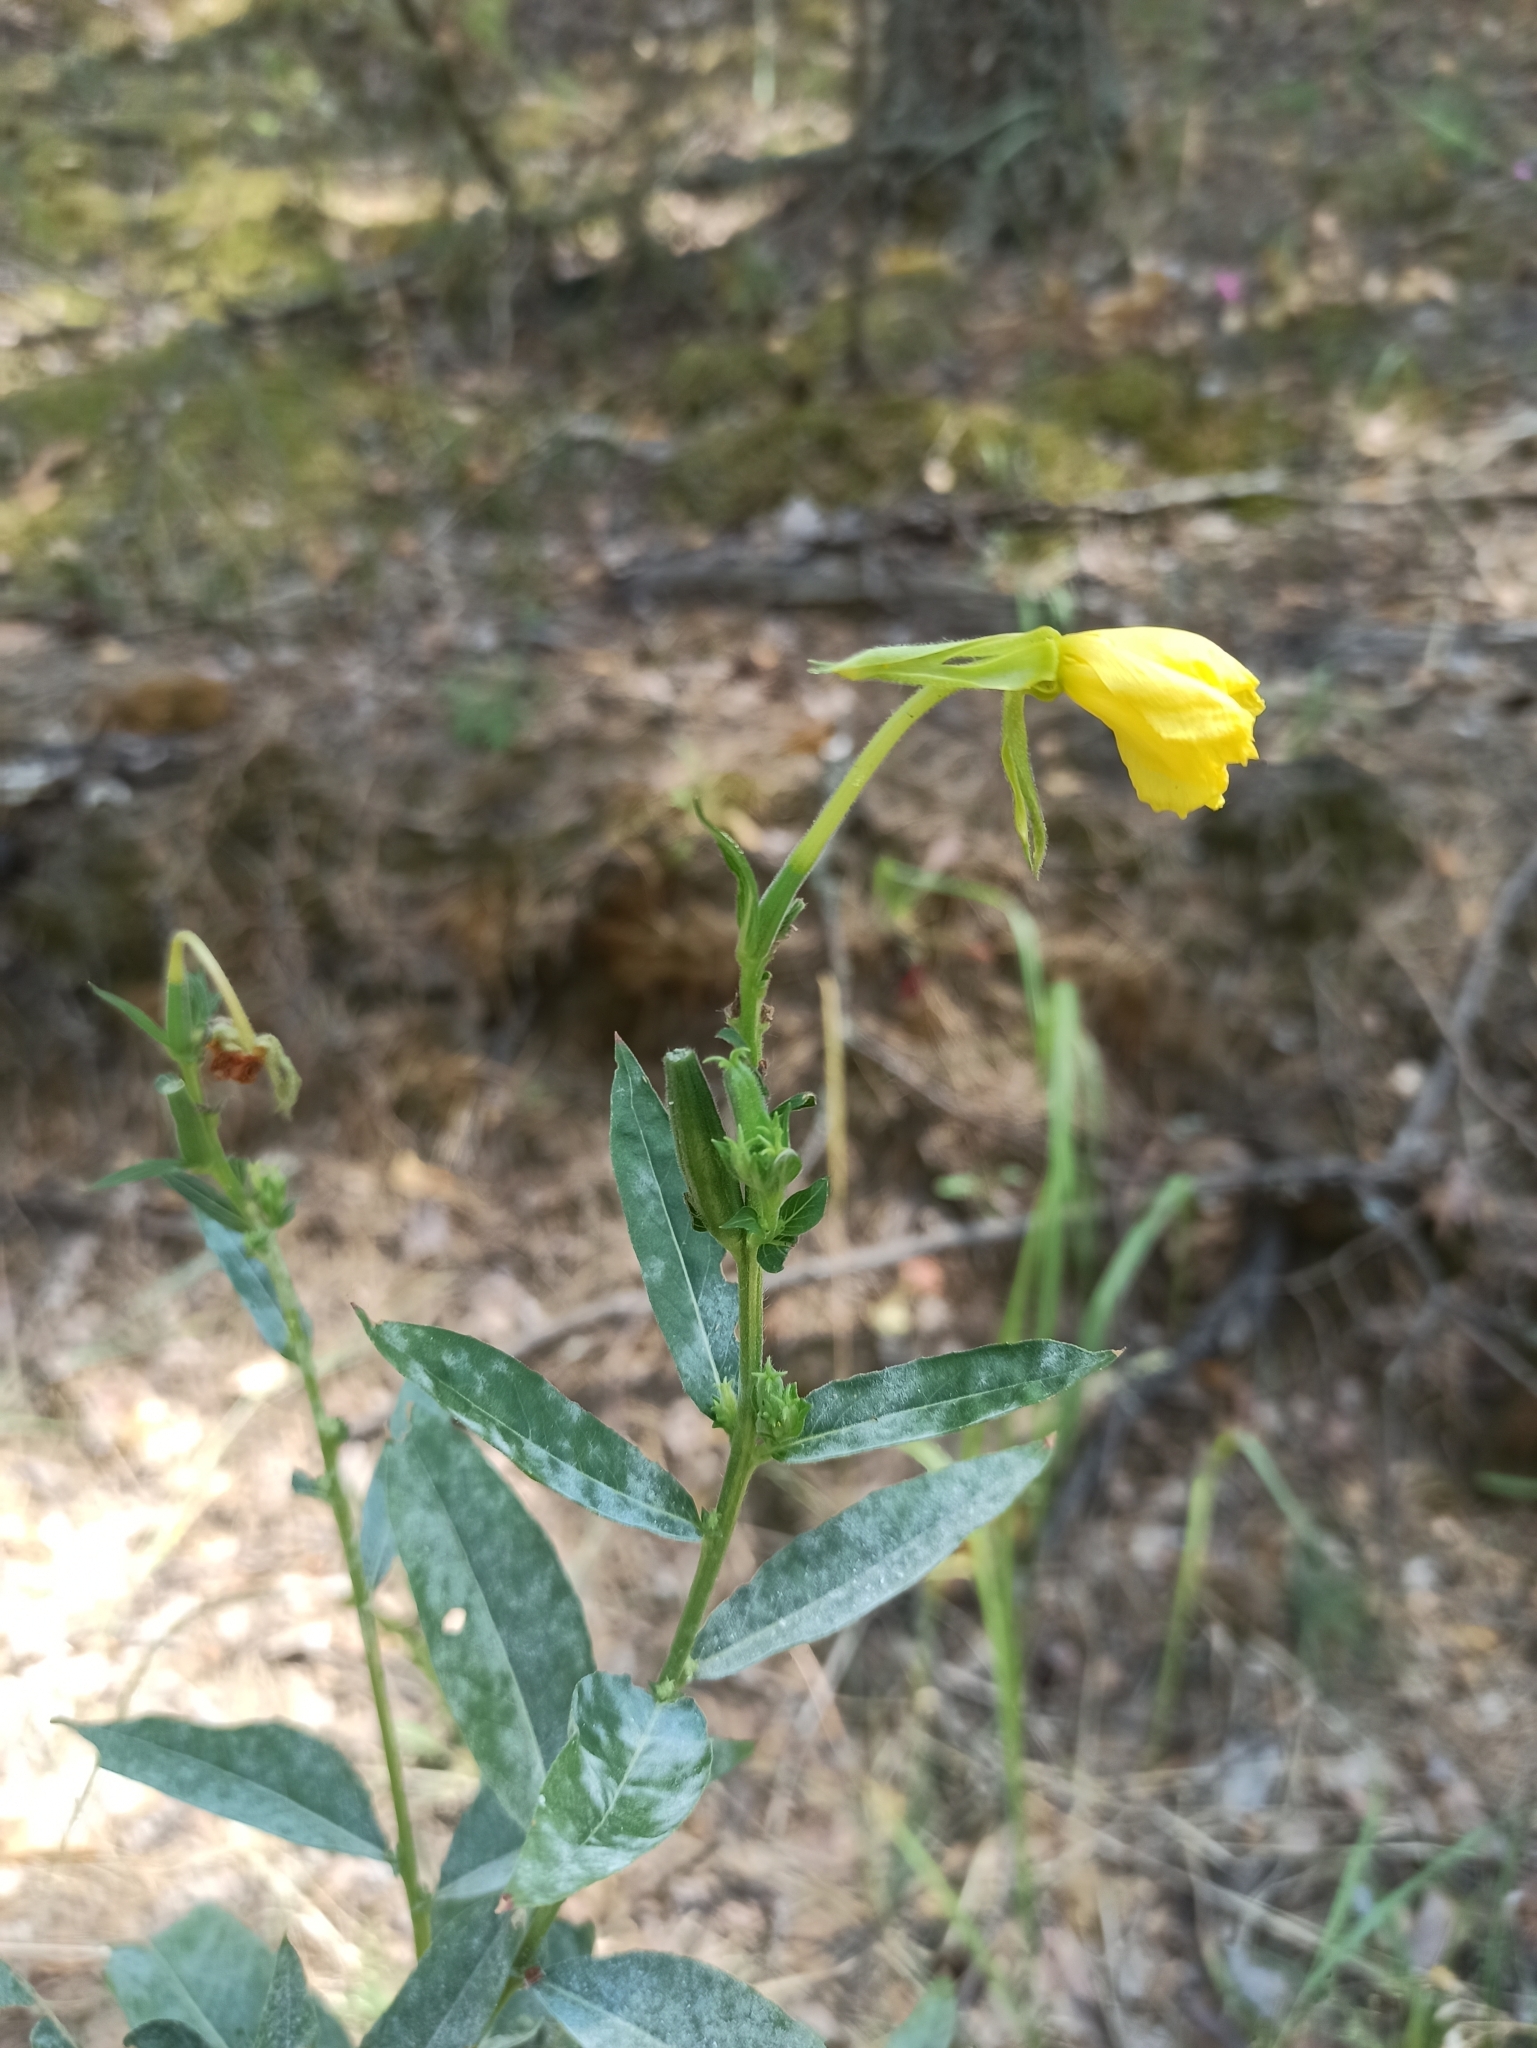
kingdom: Plantae
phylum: Tracheophyta
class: Magnoliopsida
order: Myrtales
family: Onagraceae
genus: Oenothera
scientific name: Oenothera biennis
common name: Common evening-primrose
